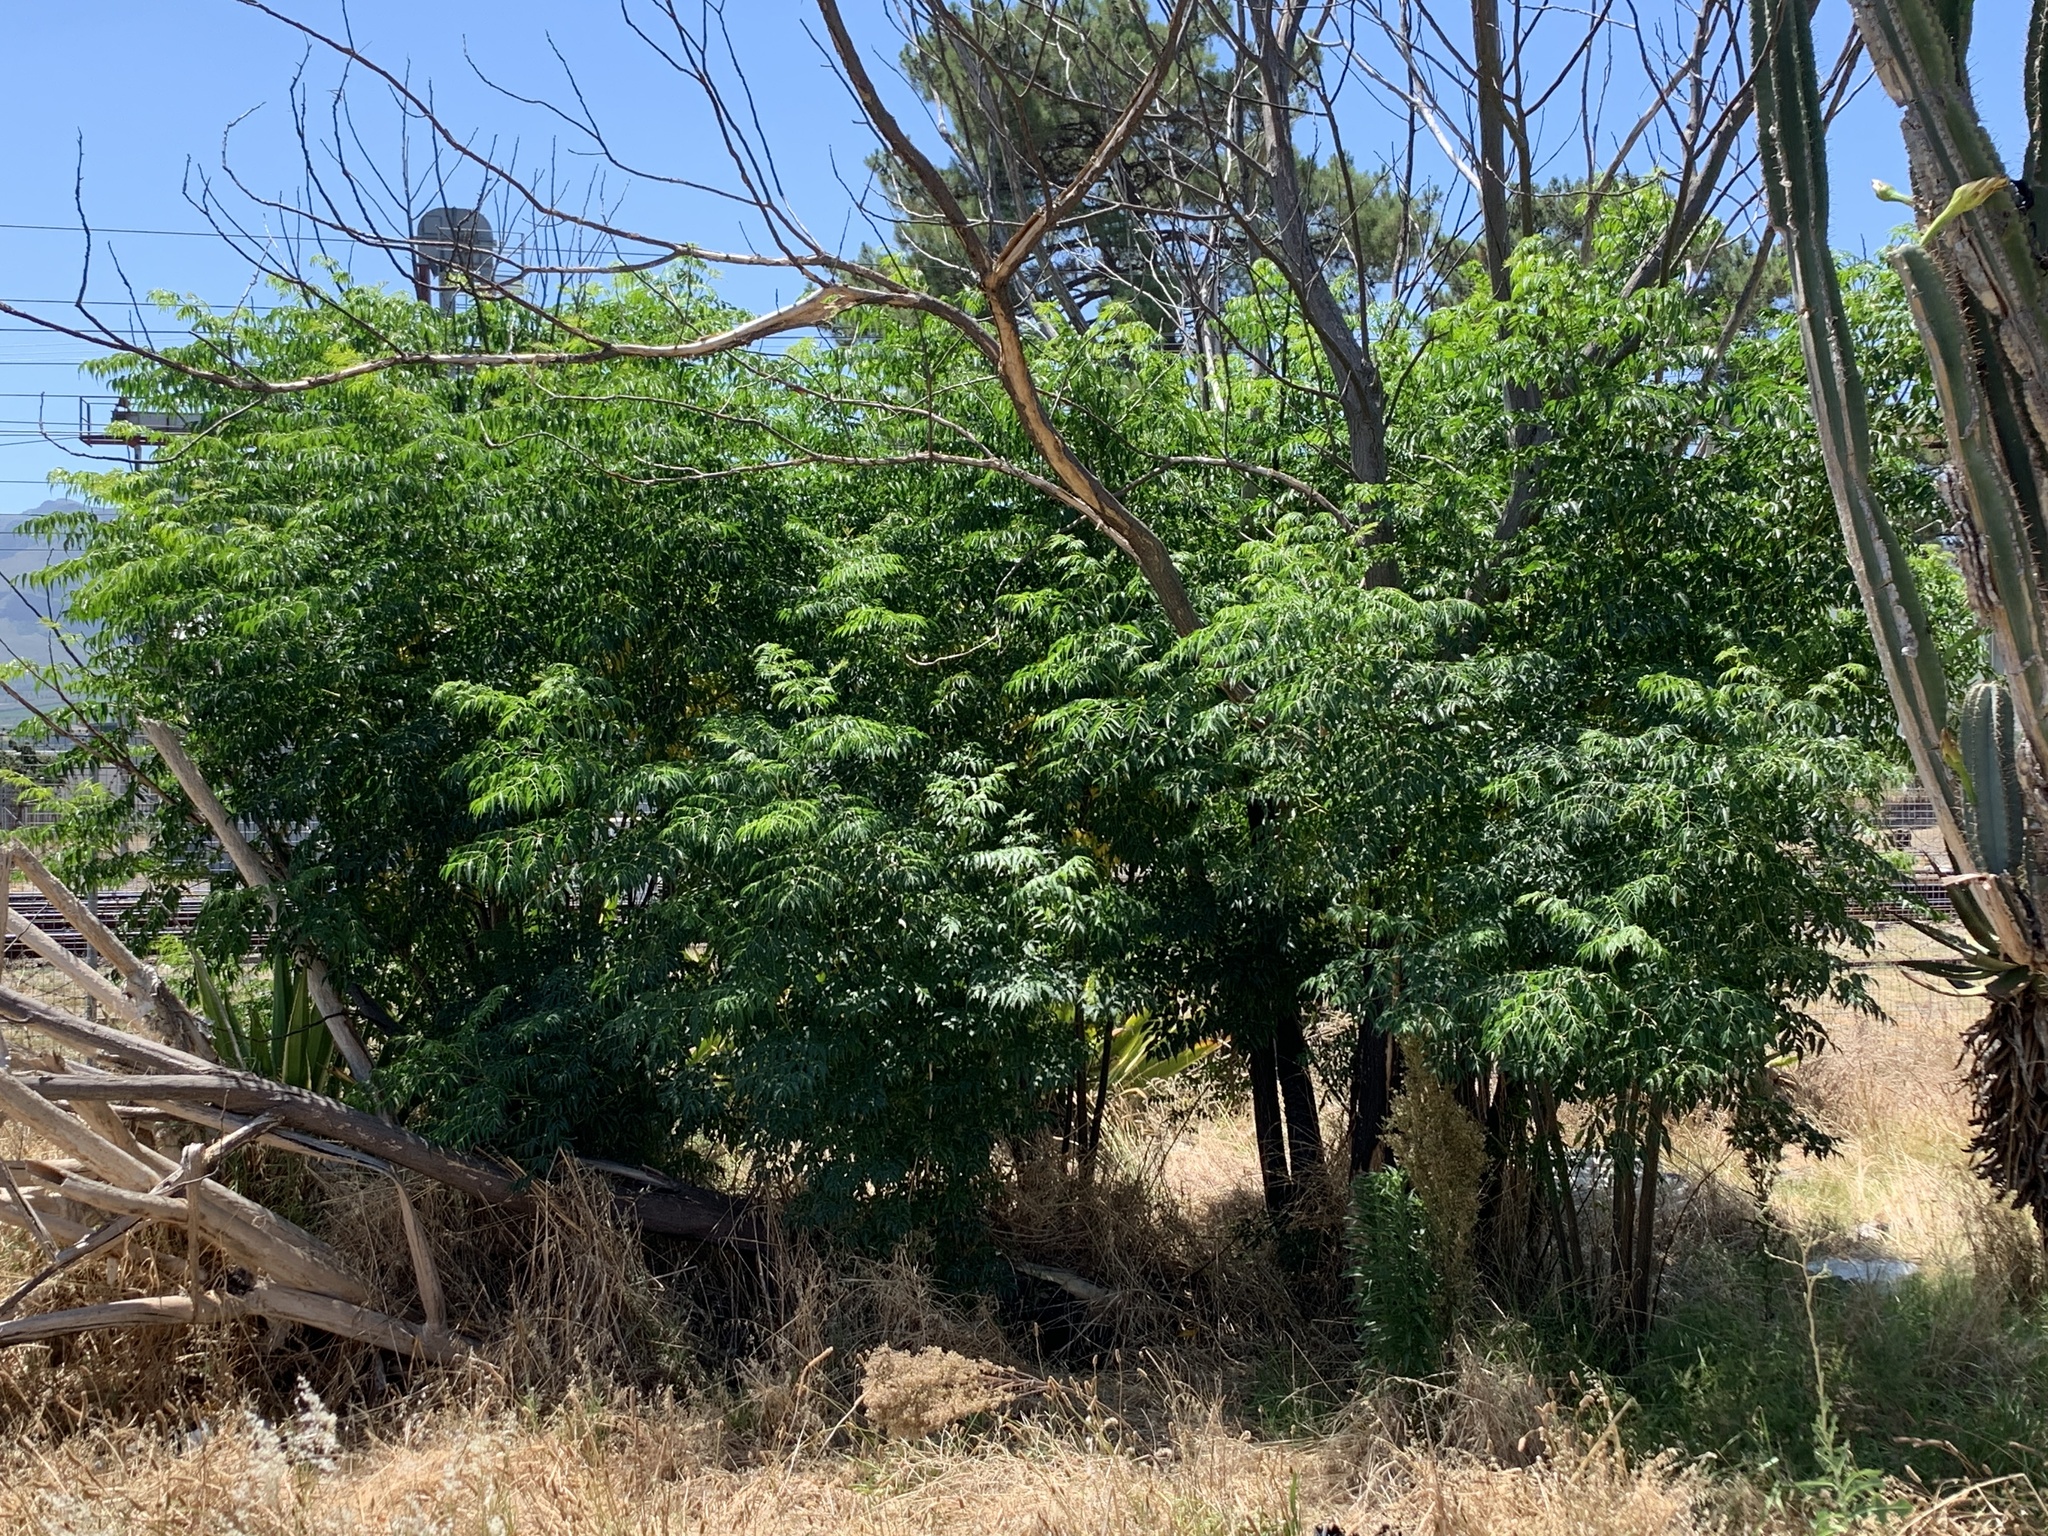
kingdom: Plantae
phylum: Tracheophyta
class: Magnoliopsida
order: Sapindales
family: Meliaceae
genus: Melia
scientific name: Melia azedarach
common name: Chinaberrytree
